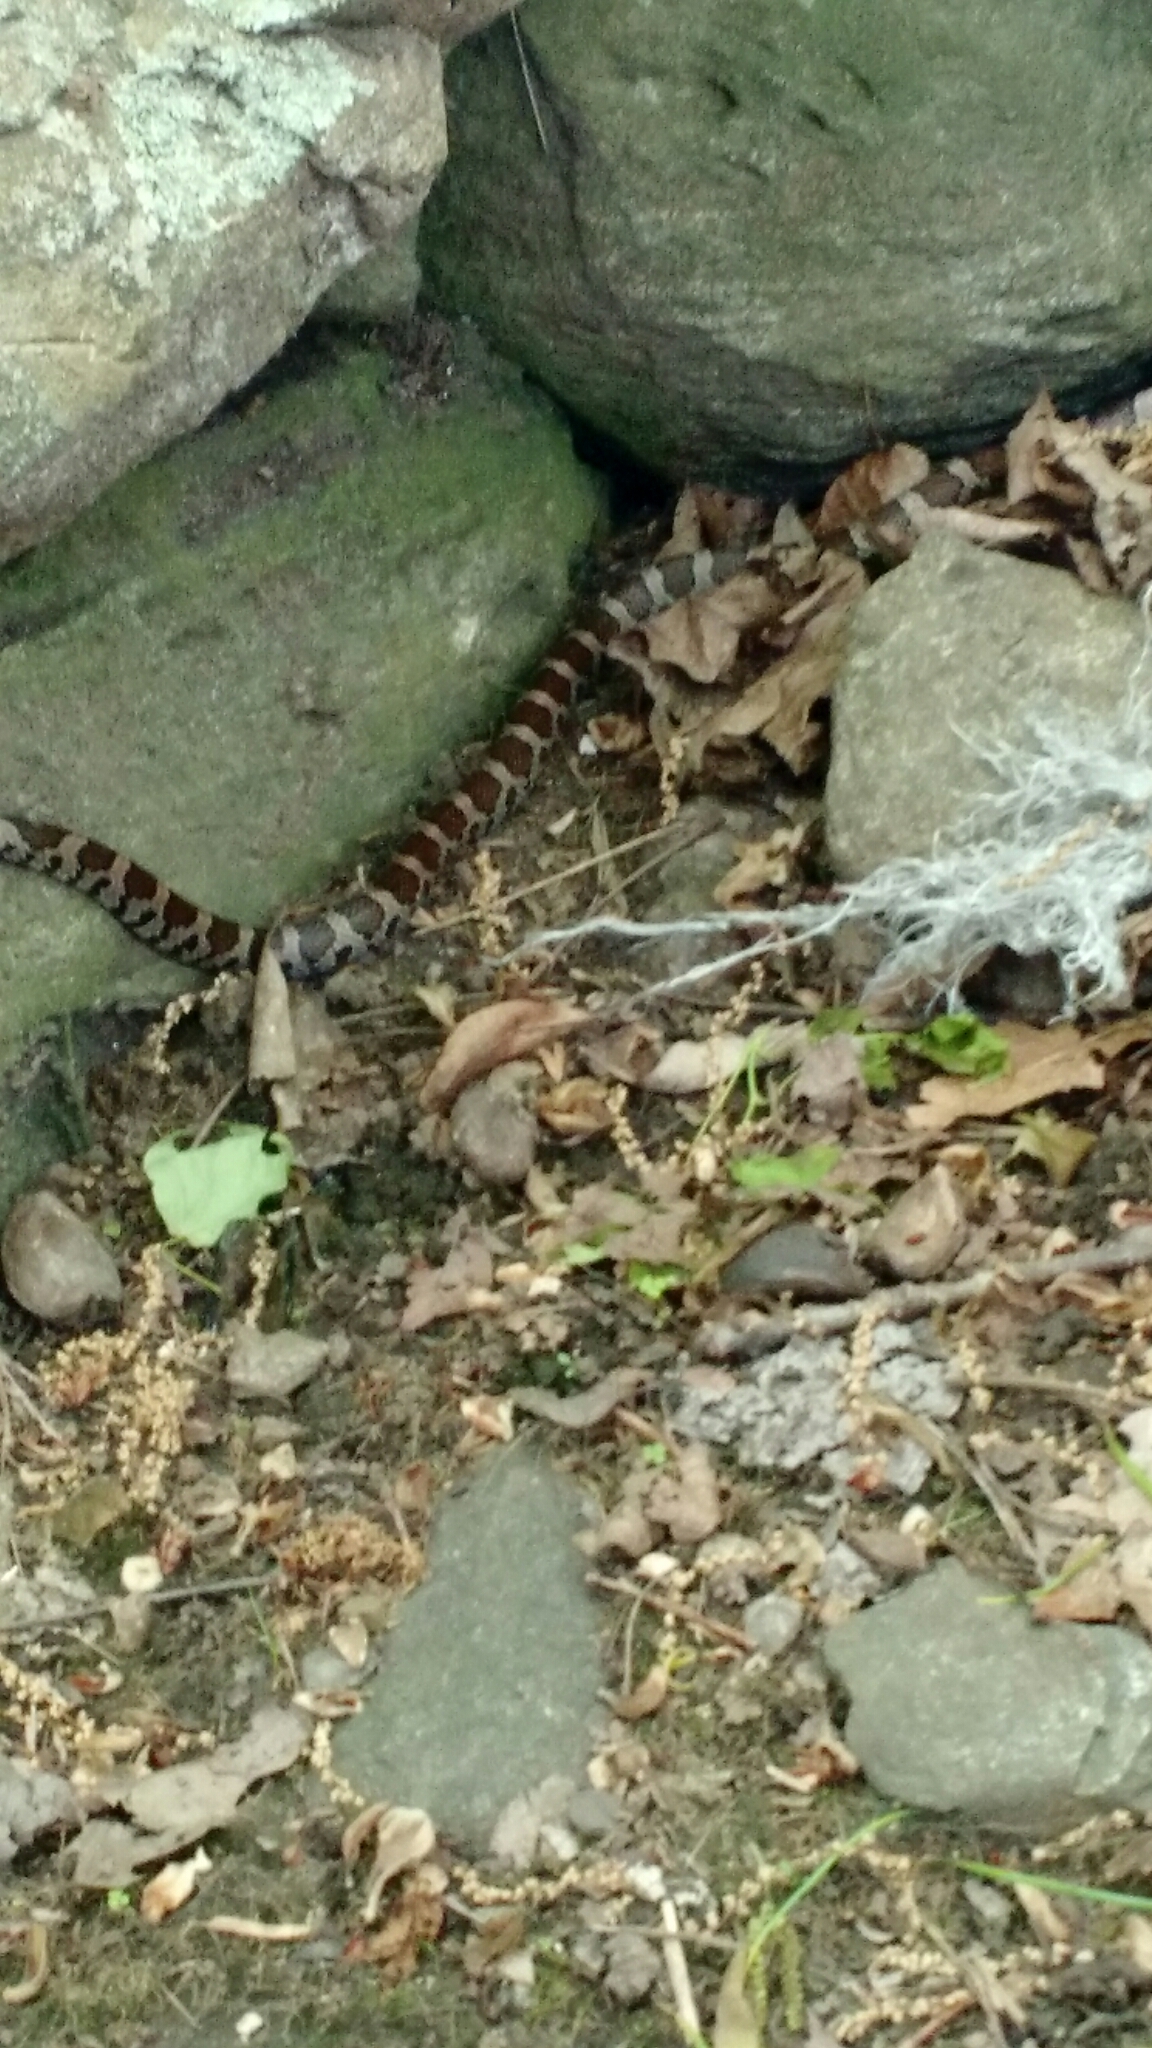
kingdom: Animalia
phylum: Chordata
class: Squamata
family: Colubridae
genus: Lampropeltis
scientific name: Lampropeltis triangulum
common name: Eastern milksnake
